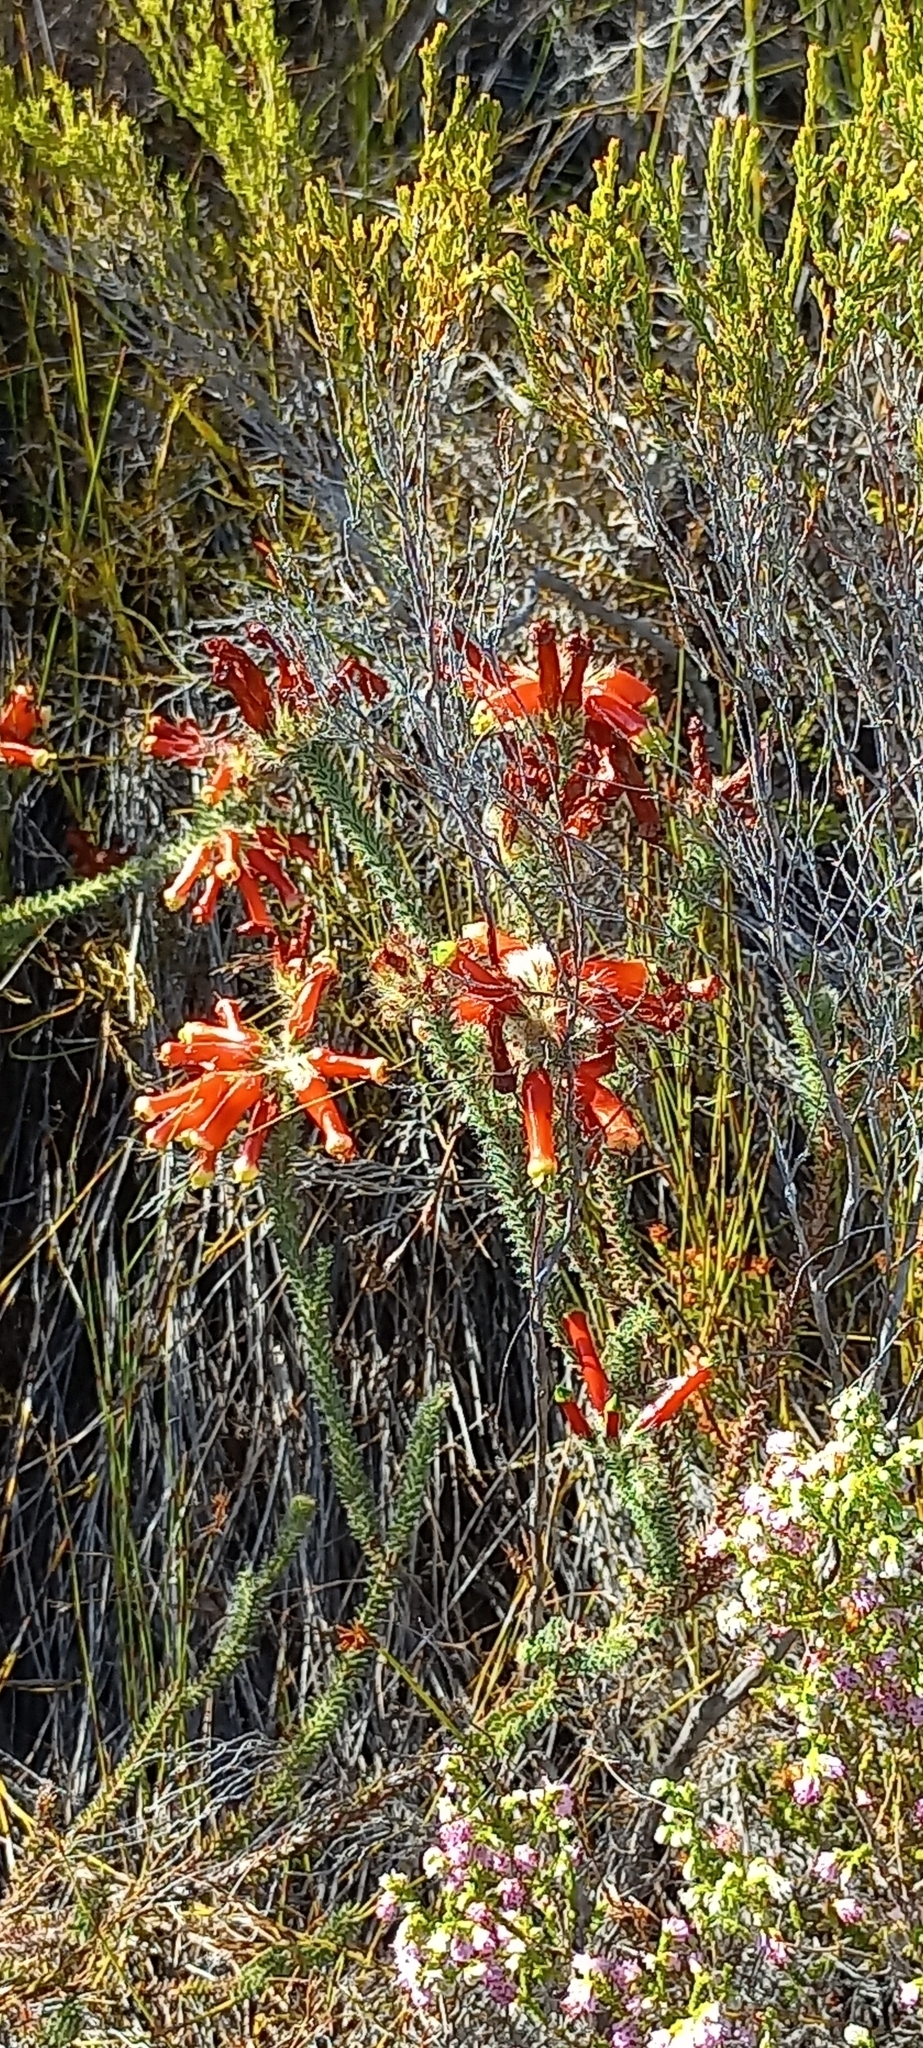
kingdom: Plantae
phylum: Tracheophyta
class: Magnoliopsida
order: Ericales
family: Ericaceae
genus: Erica
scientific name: Erica massonii
